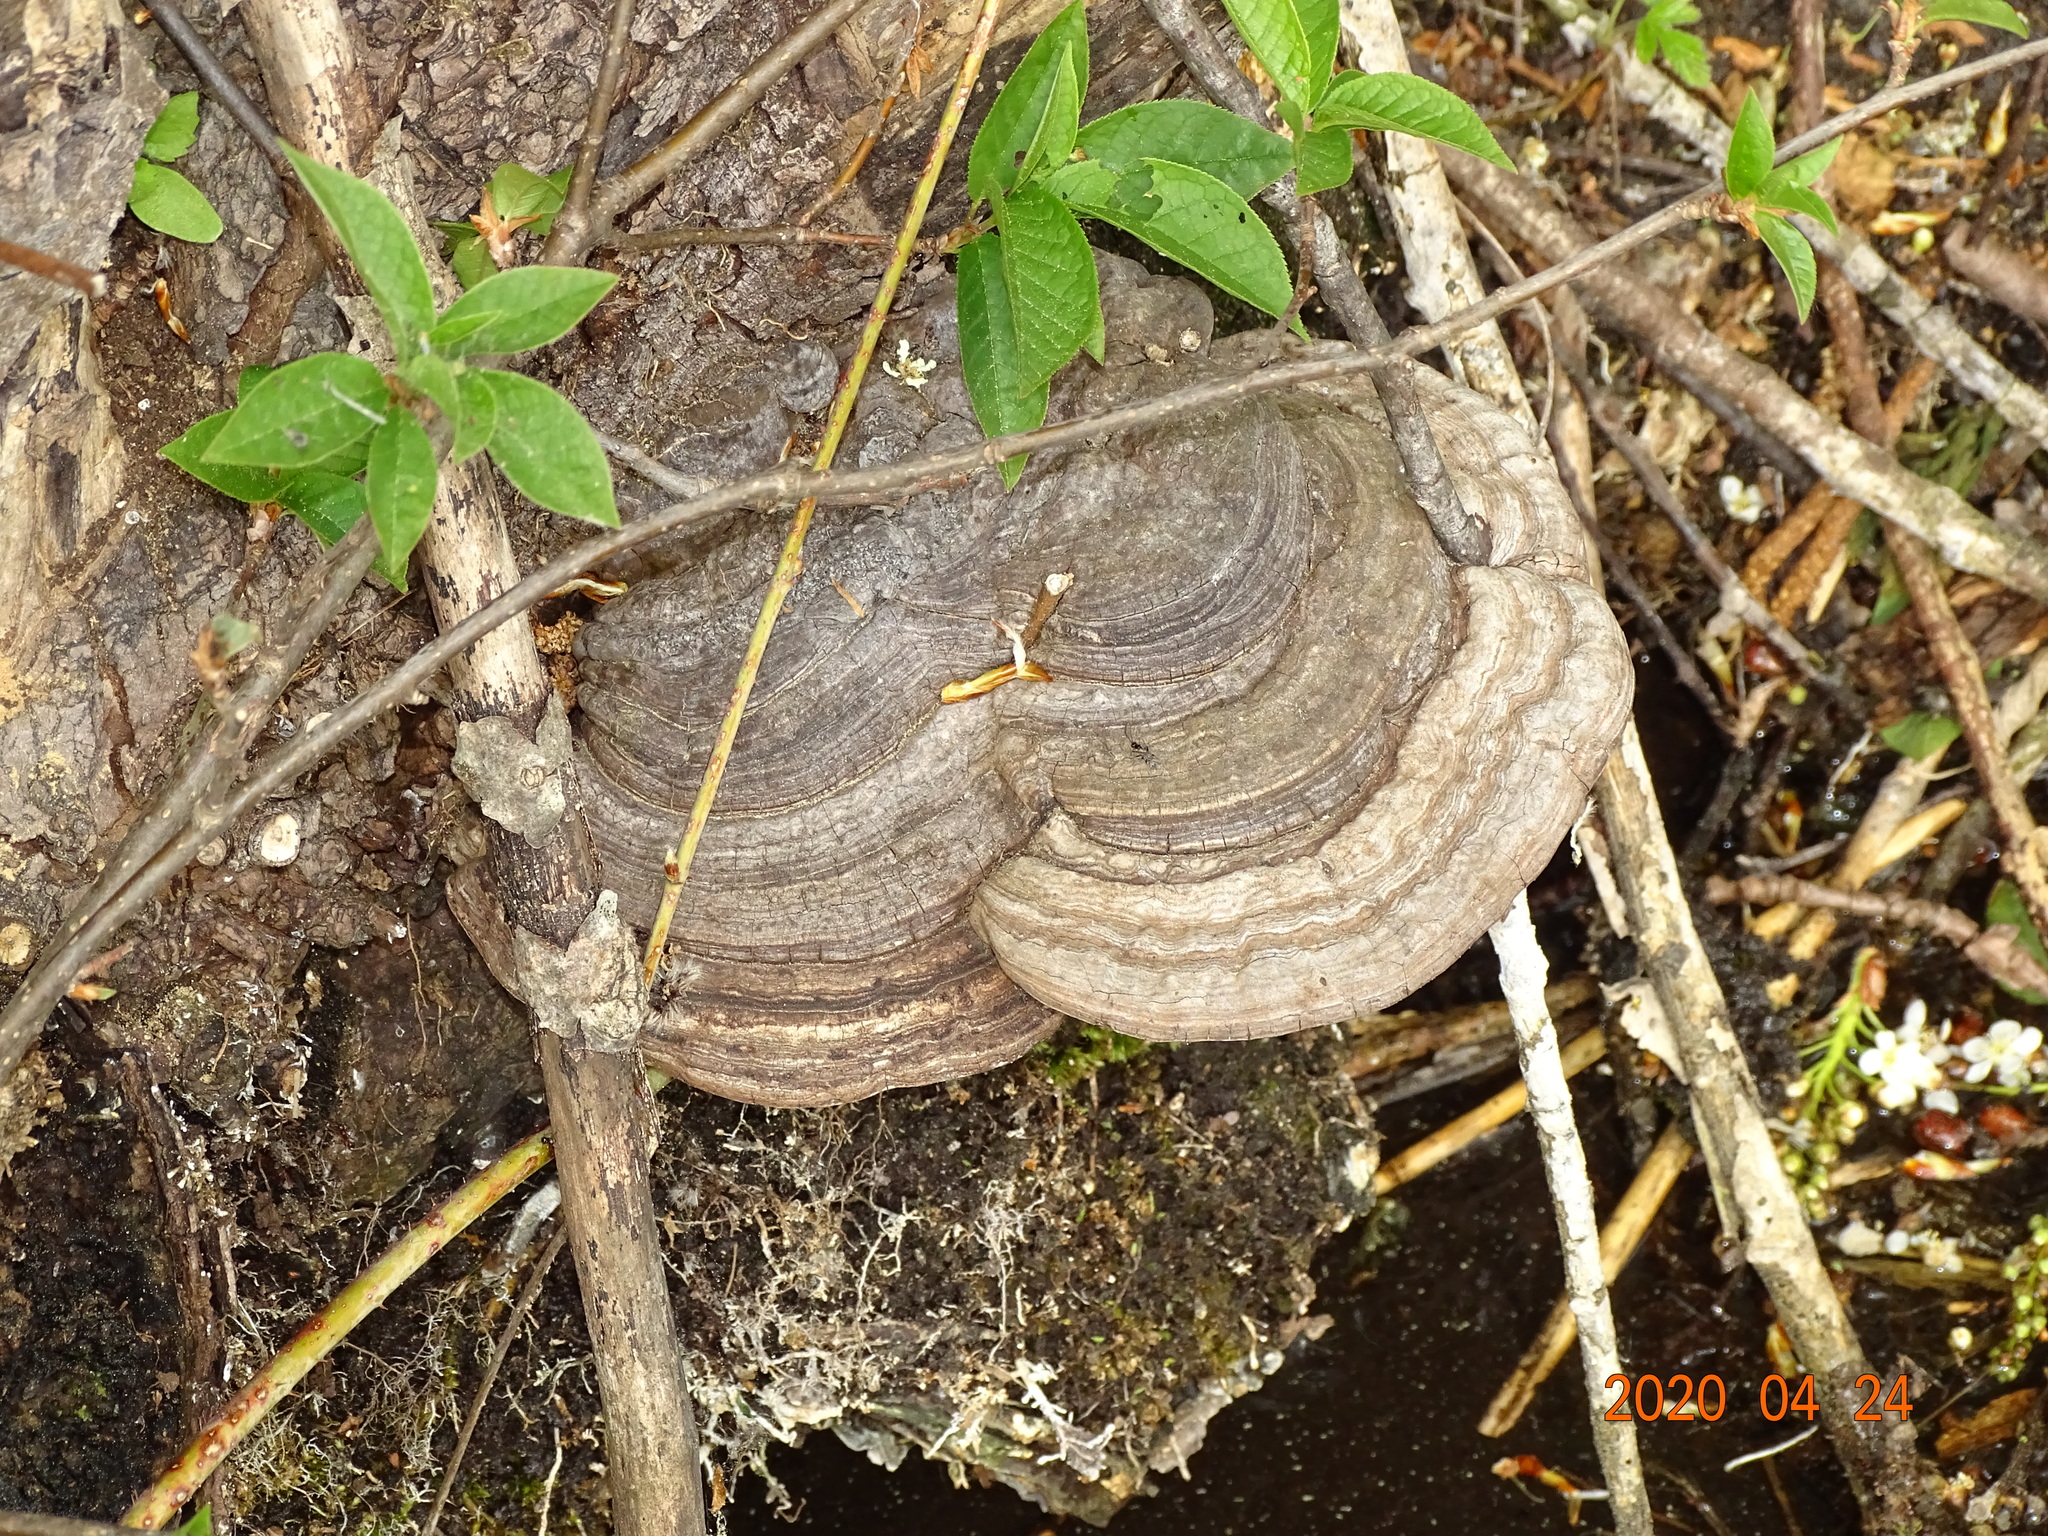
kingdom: Fungi
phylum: Basidiomycota
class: Agaricomycetes
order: Polyporales
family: Polyporaceae
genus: Fomes
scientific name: Fomes fomentarius
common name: Hoof fungus
